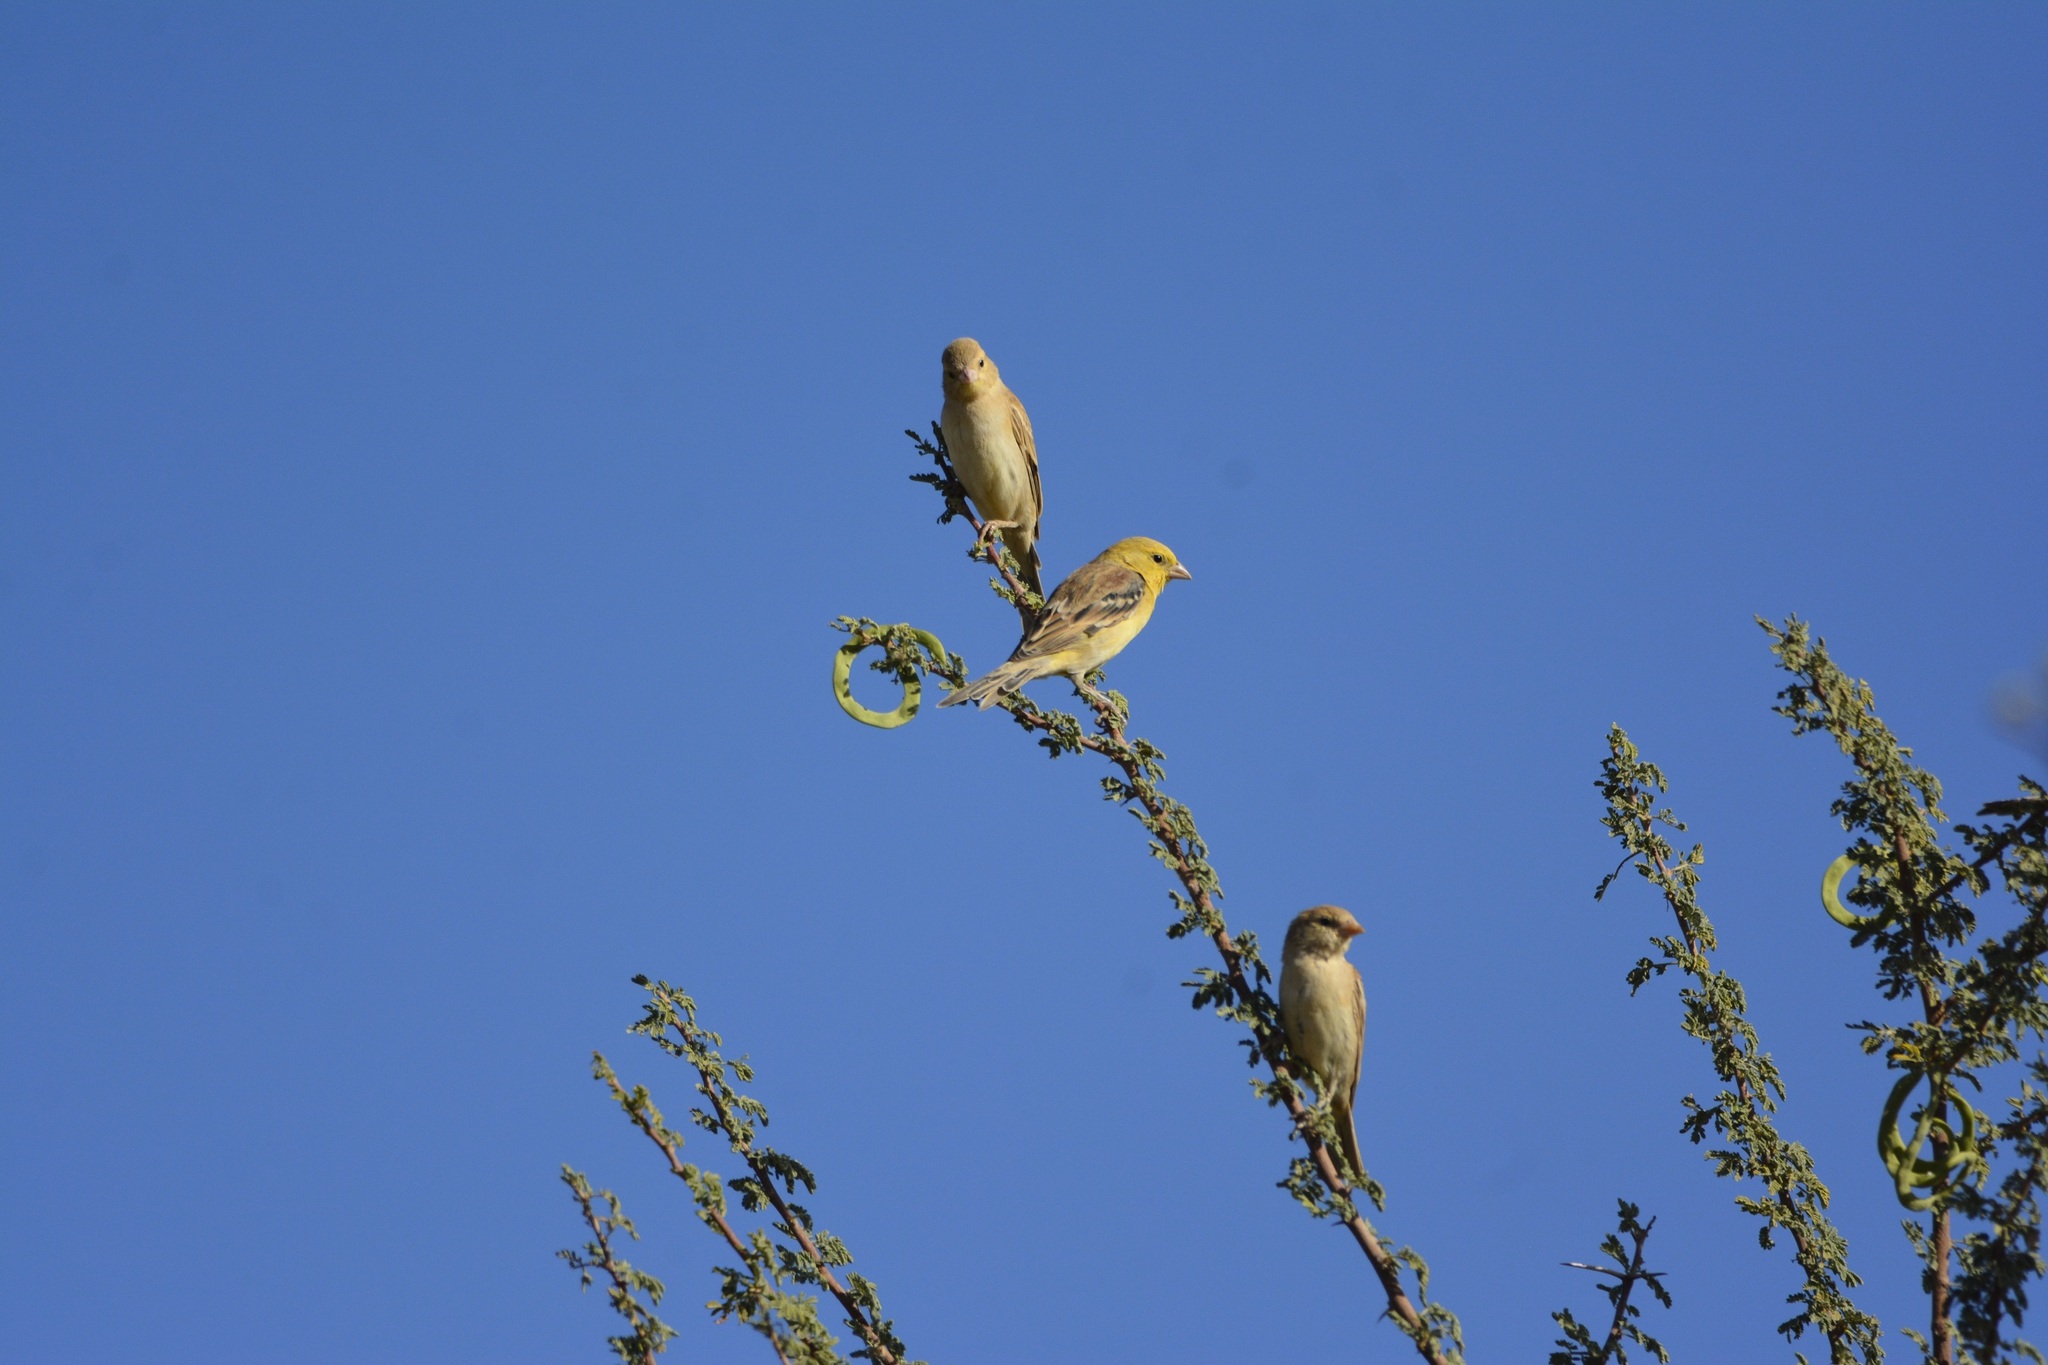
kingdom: Animalia
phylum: Chordata
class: Aves
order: Passeriformes
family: Passeridae
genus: Passer
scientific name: Passer luteus
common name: Sudan golden sparrow
